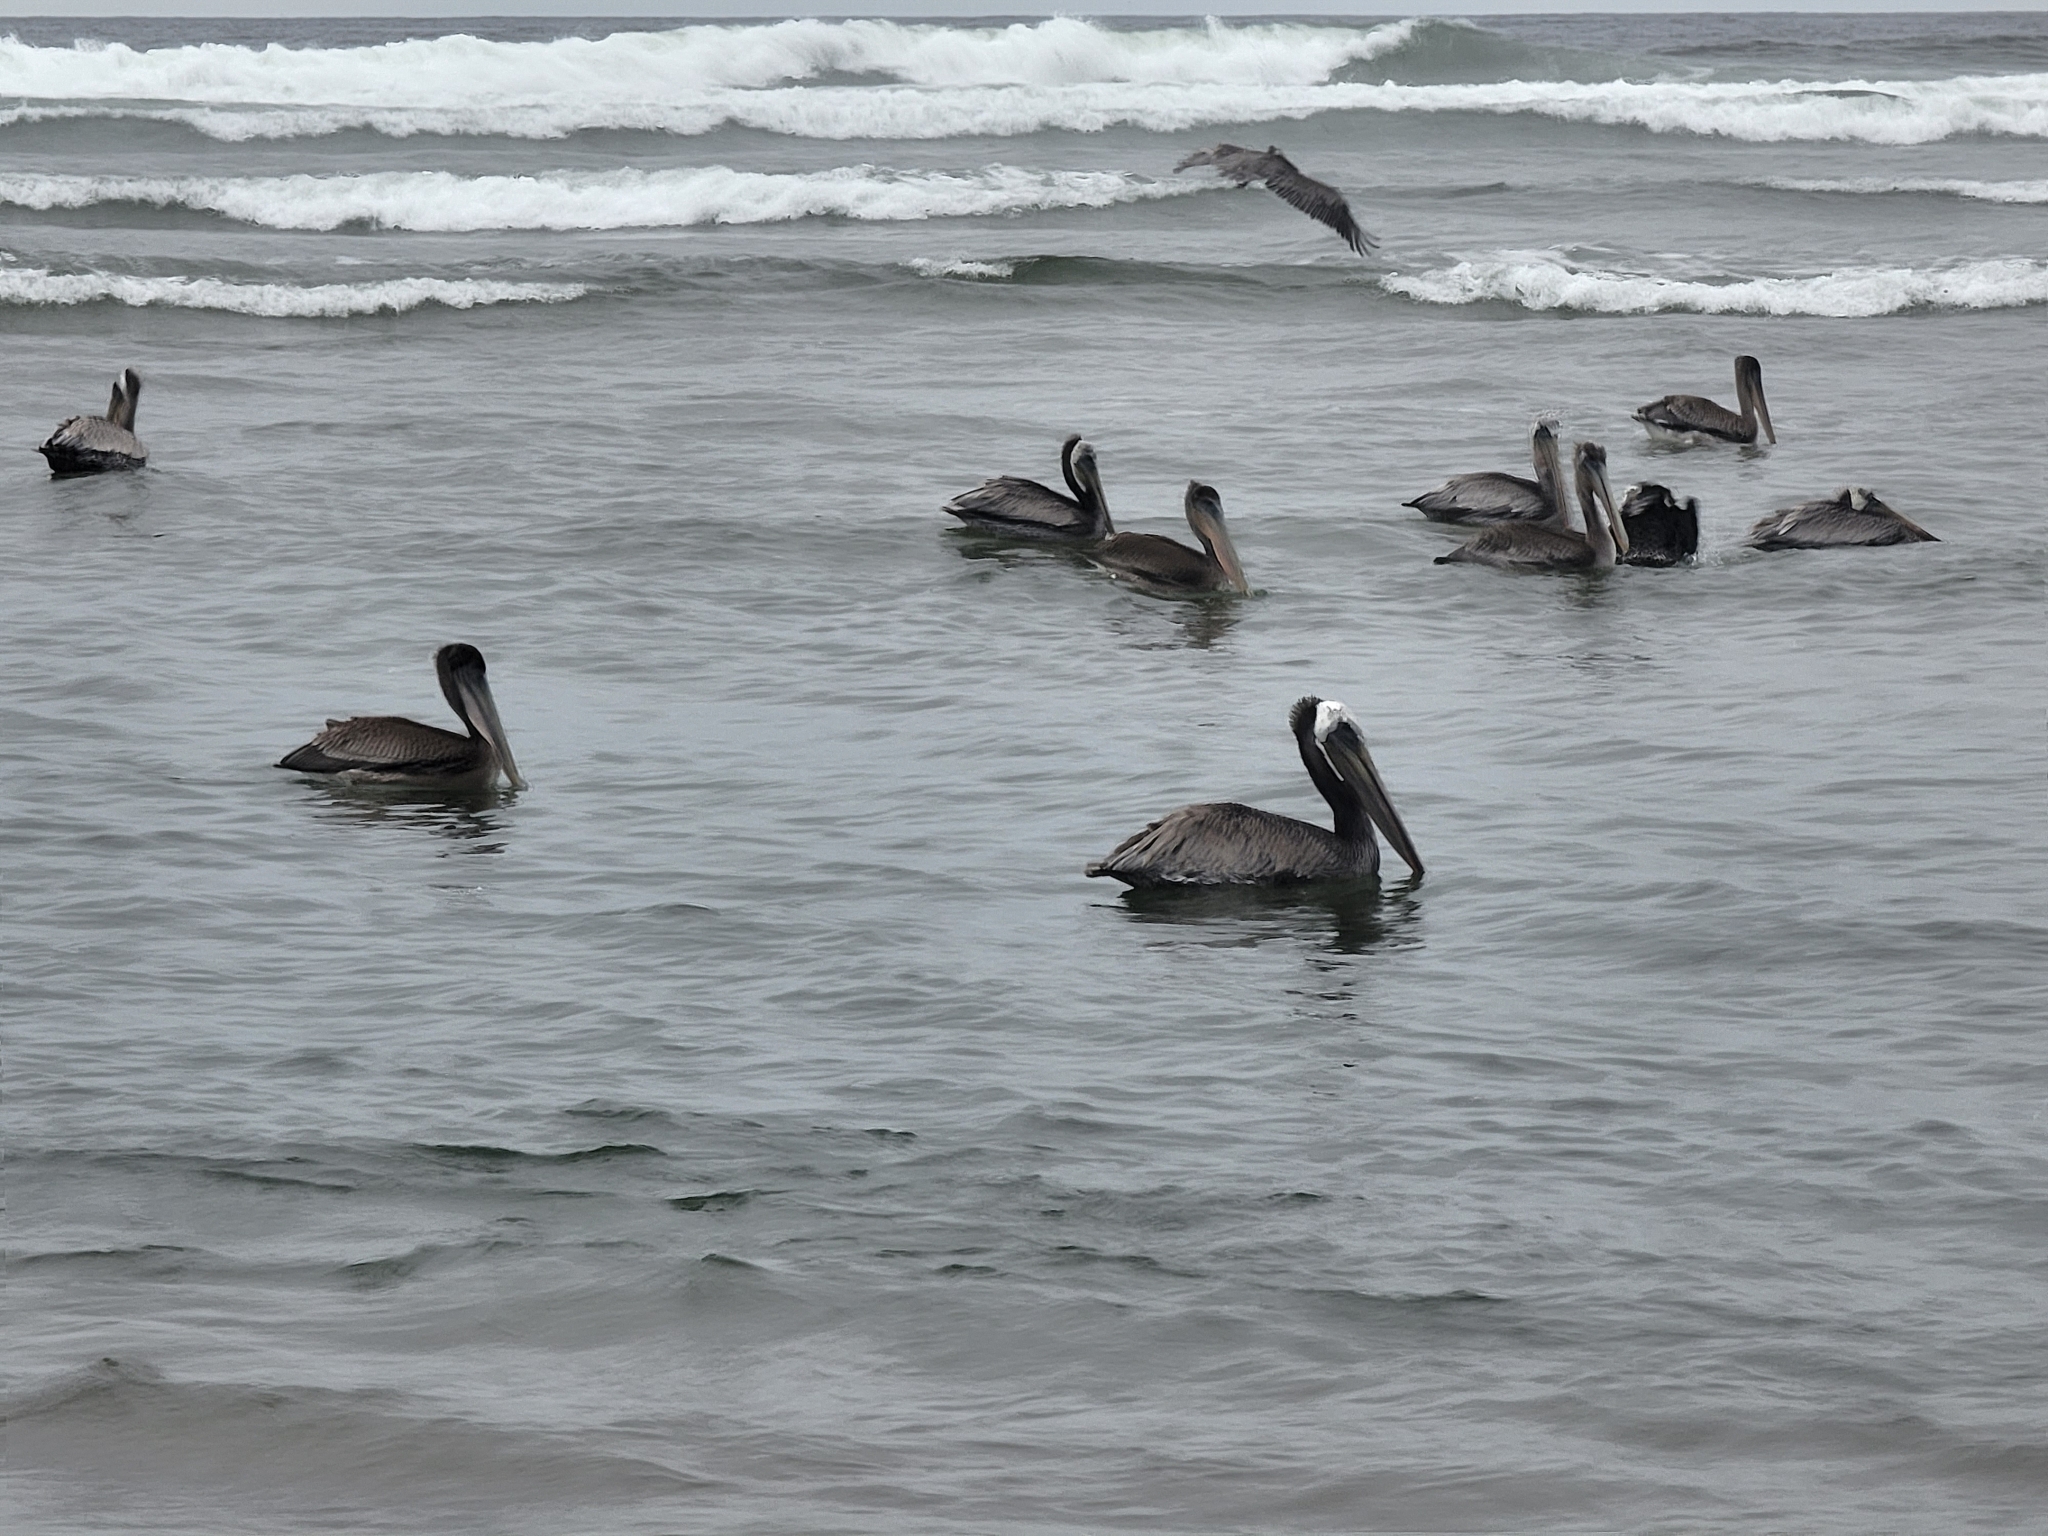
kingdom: Animalia
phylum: Chordata
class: Aves
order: Pelecaniformes
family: Pelecanidae
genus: Pelecanus
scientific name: Pelecanus occidentalis
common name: Brown pelican
